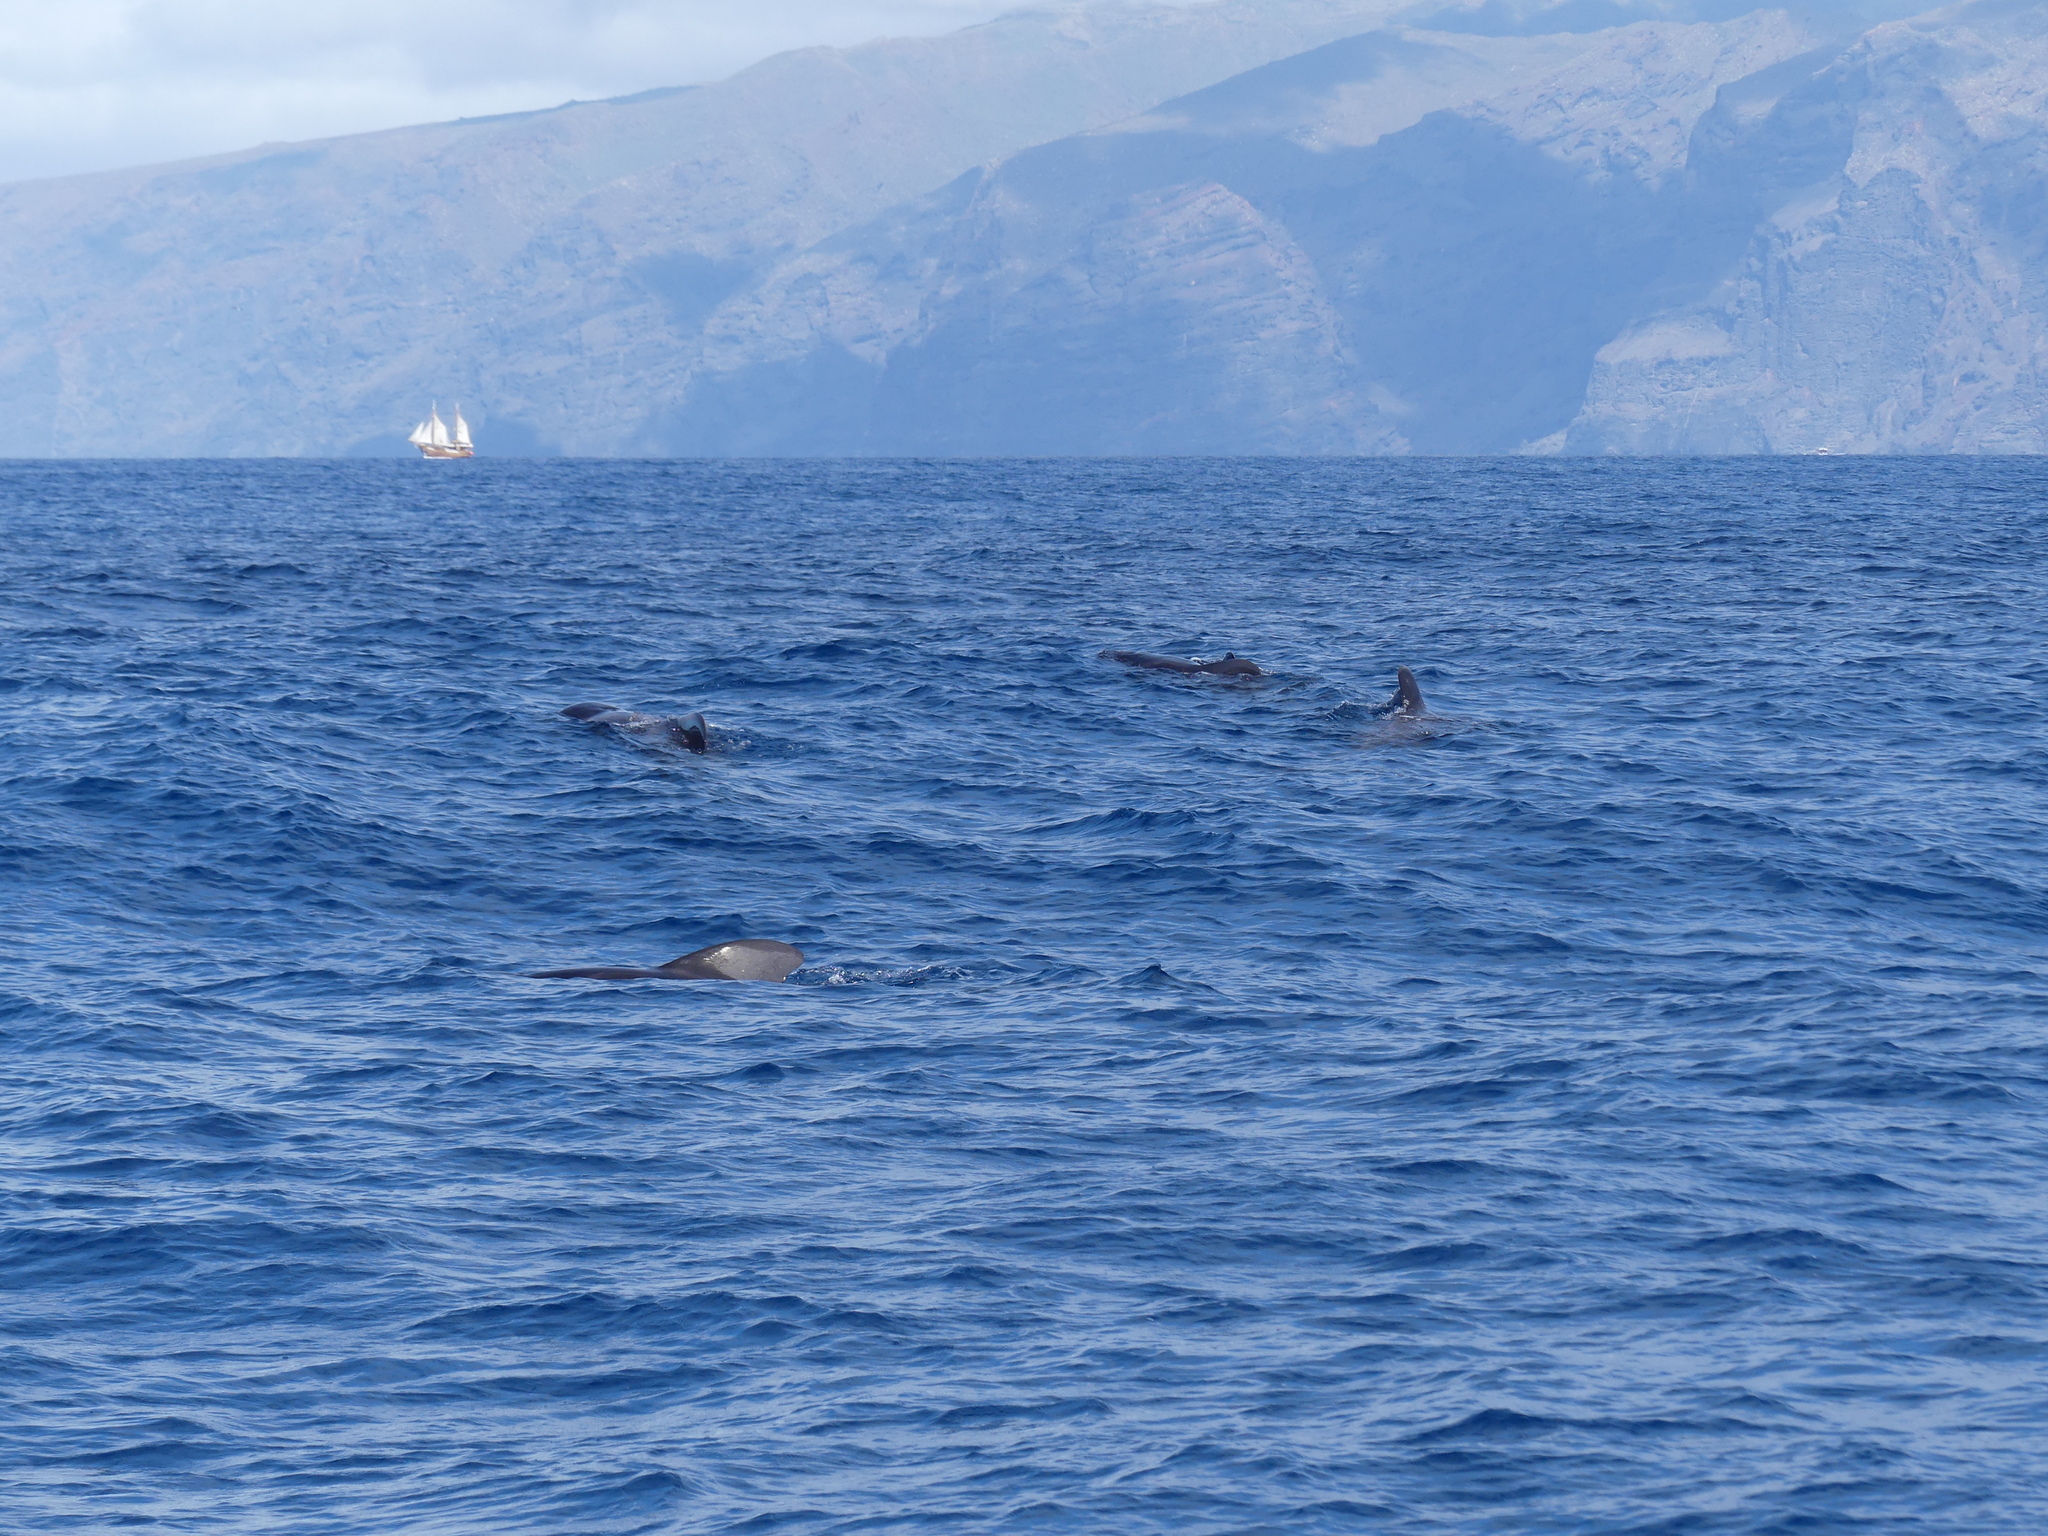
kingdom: Animalia
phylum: Chordata
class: Mammalia
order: Cetacea
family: Delphinidae
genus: Globicephala
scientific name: Globicephala macrorhynchus
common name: Short-finned pilot whale
